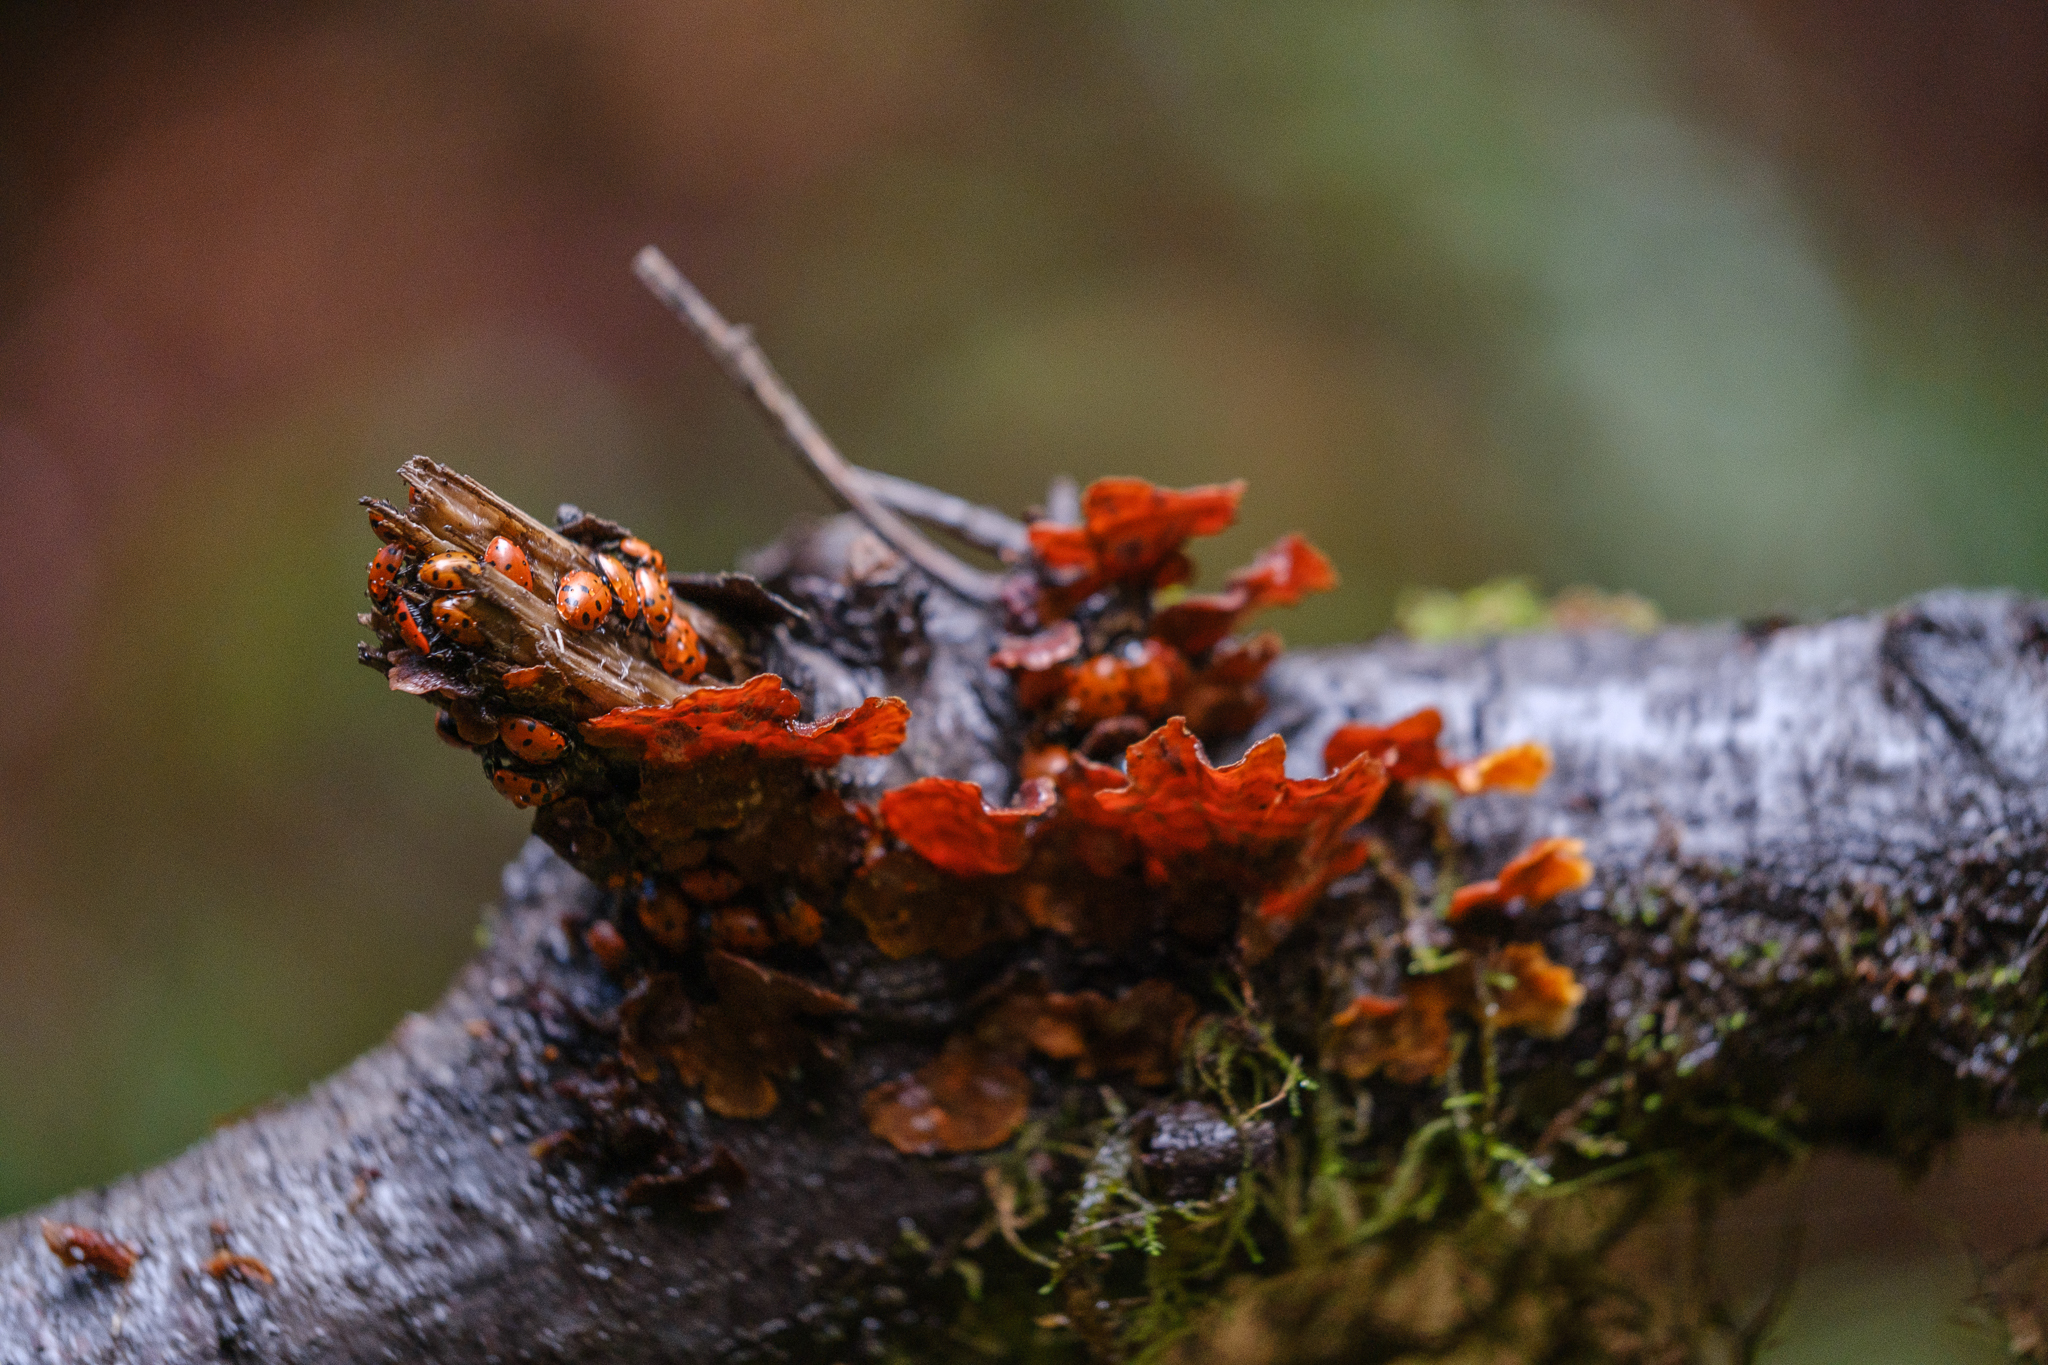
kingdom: Fungi
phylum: Basidiomycota
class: Agaricomycetes
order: Russulales
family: Stereaceae
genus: Stereum
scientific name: Stereum hirsutum
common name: Hairy curtain crust
